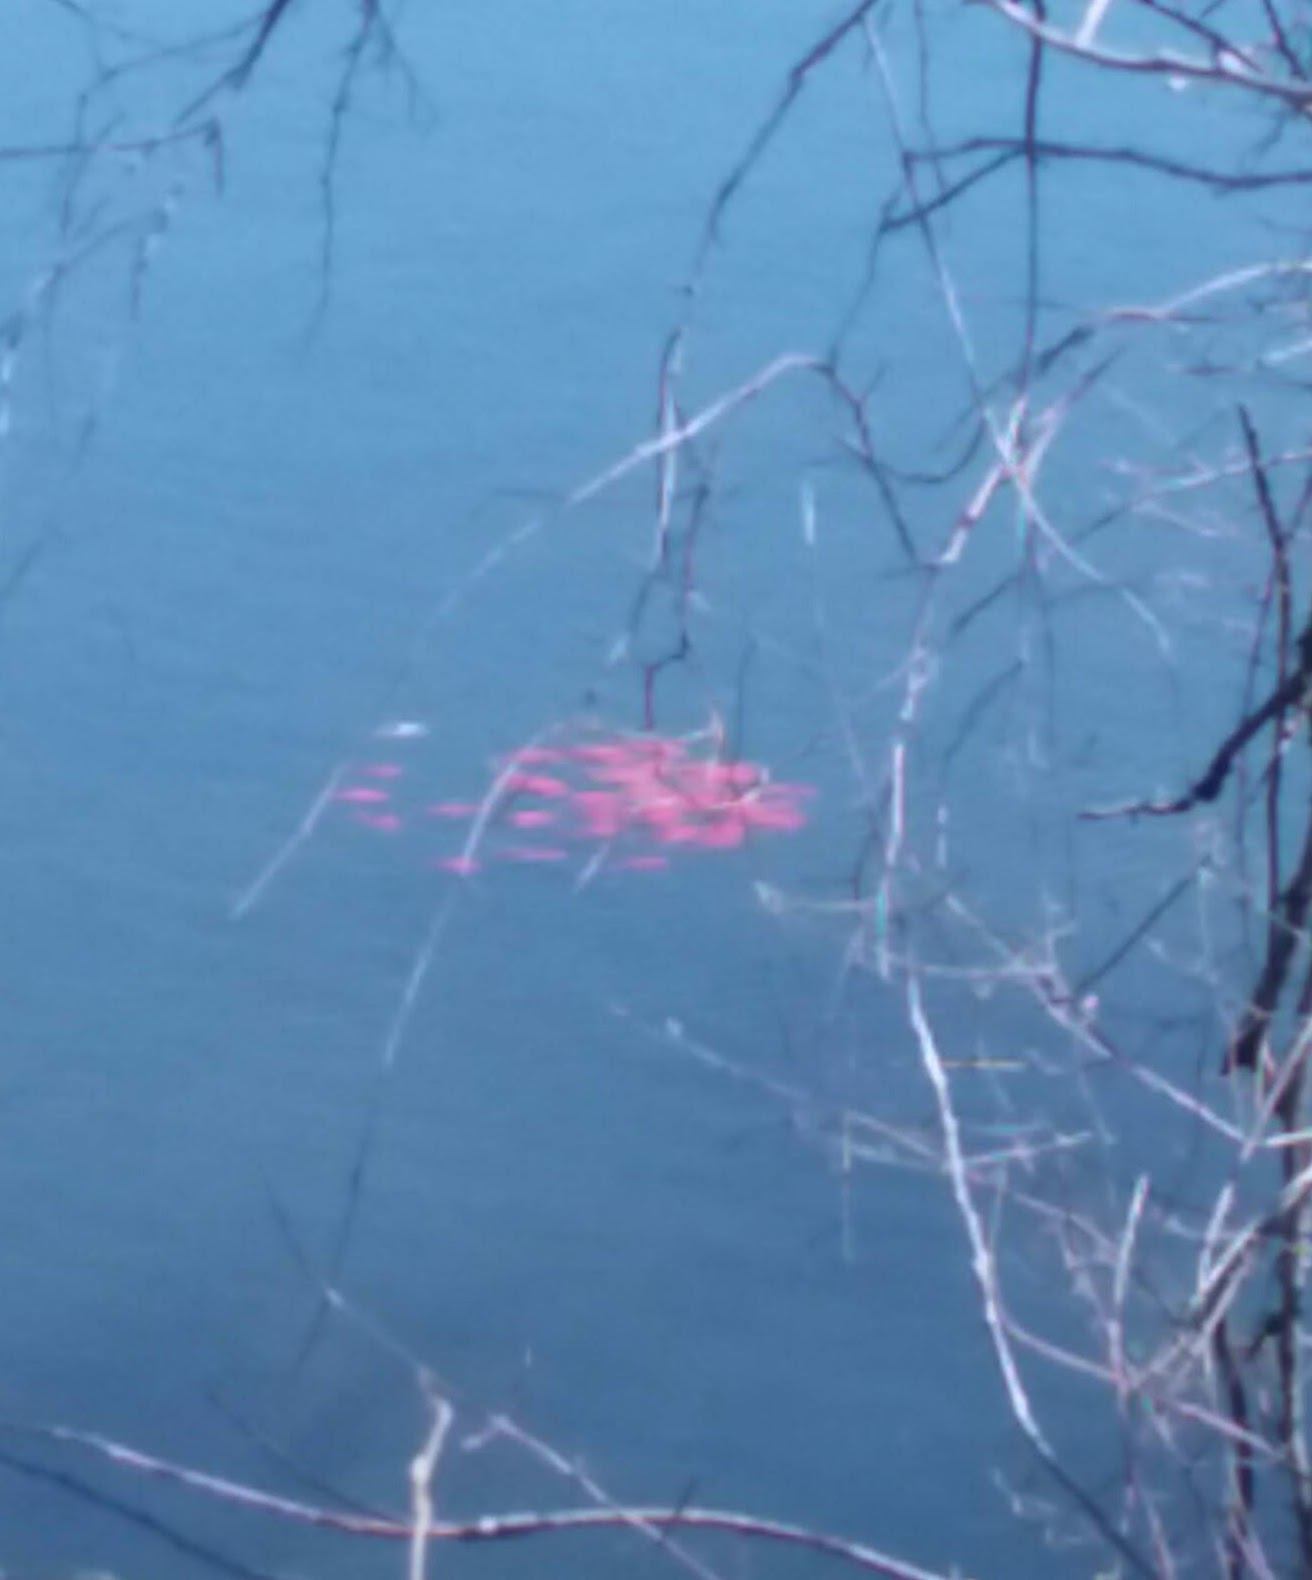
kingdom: Animalia
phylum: Chordata
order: Cypriniformes
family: Cyprinidae
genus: Carassius
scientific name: Carassius auratus
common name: Goldfish
